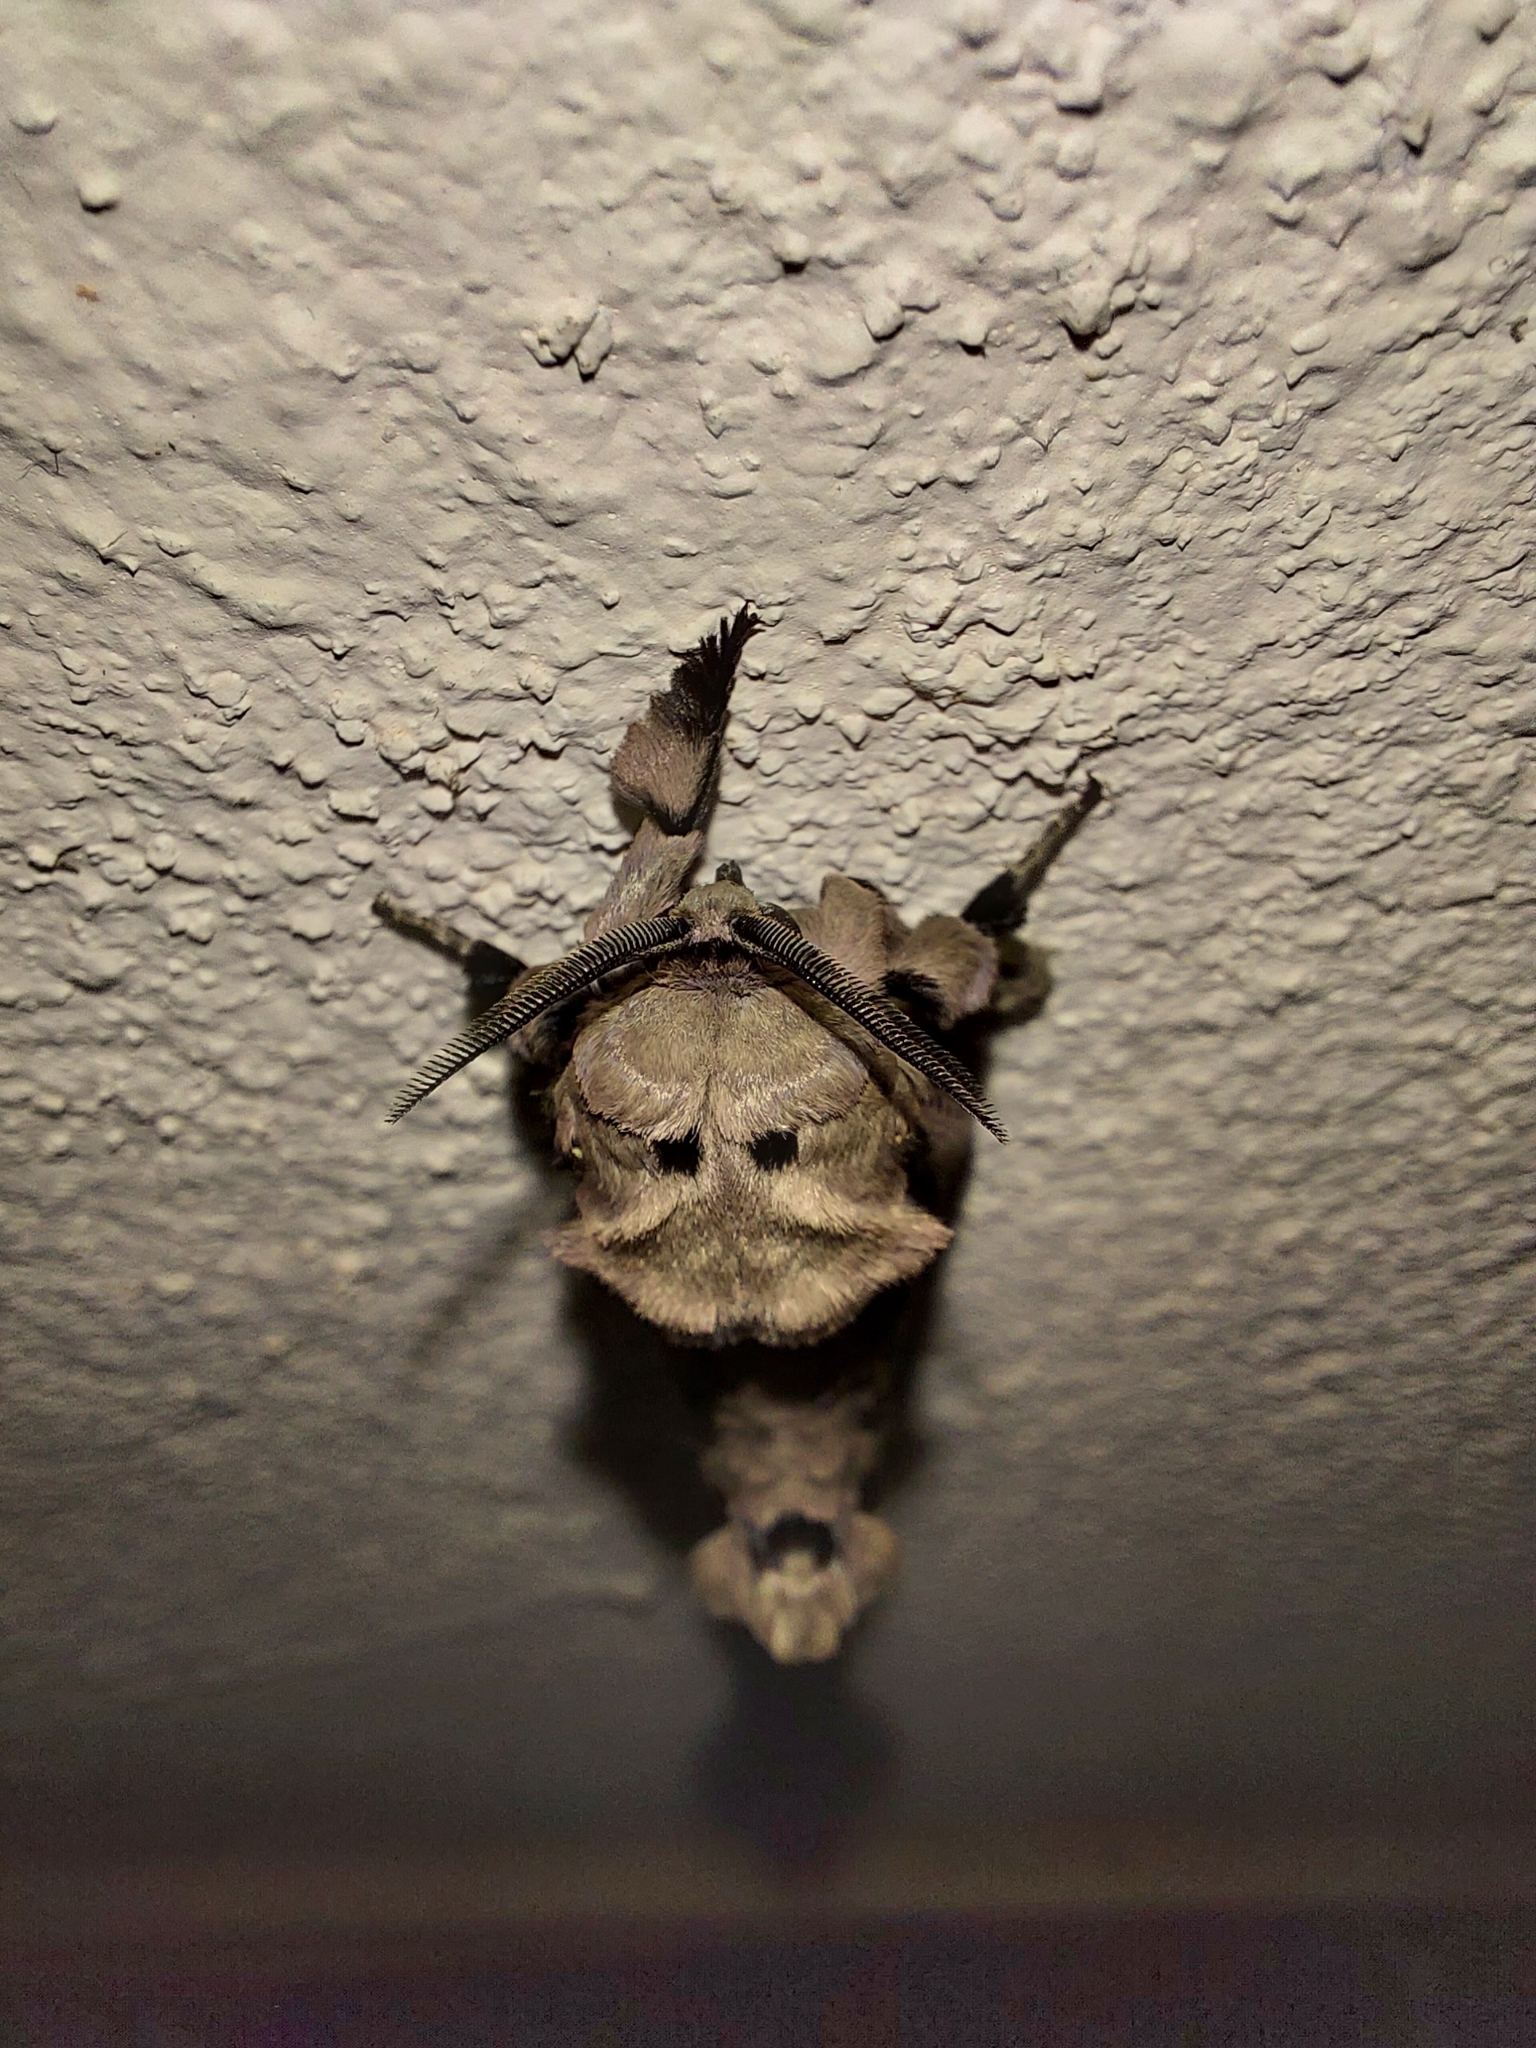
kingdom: Animalia
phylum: Arthropoda
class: Insecta
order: Lepidoptera
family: Cossidae
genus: Langsdorfia
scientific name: Langsdorfia franckii
